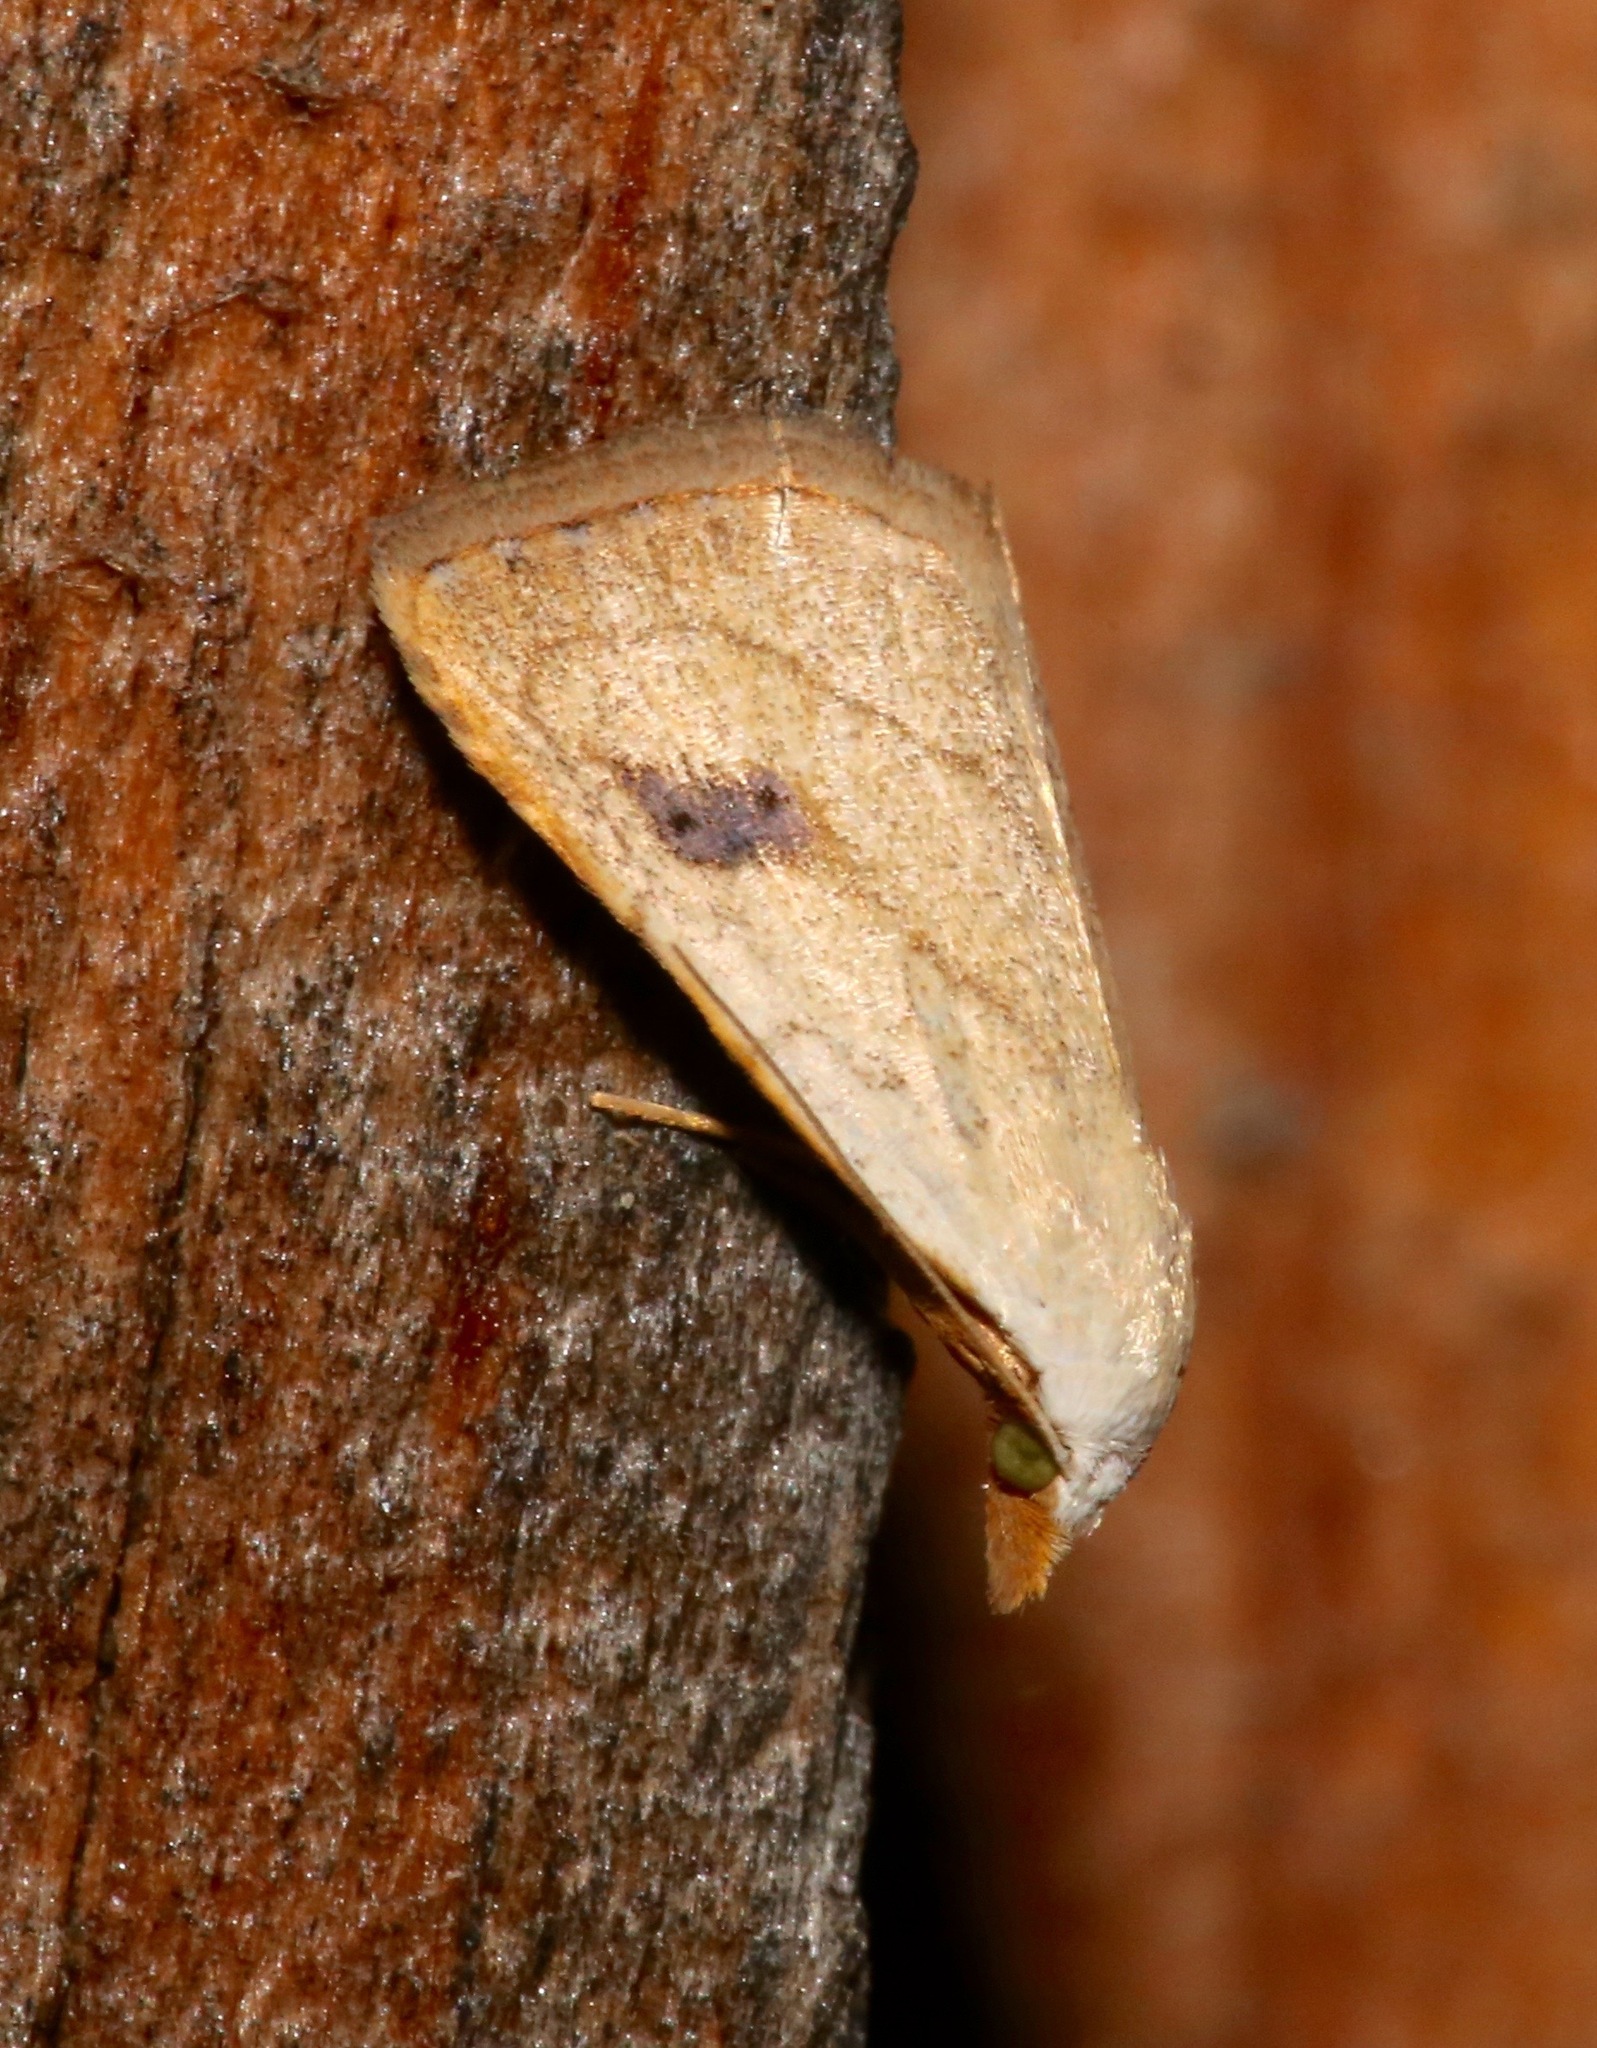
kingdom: Animalia
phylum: Arthropoda
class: Insecta
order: Lepidoptera
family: Erebidae
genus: Rivula
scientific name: Rivula propinqualis
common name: Spotted grass moth
